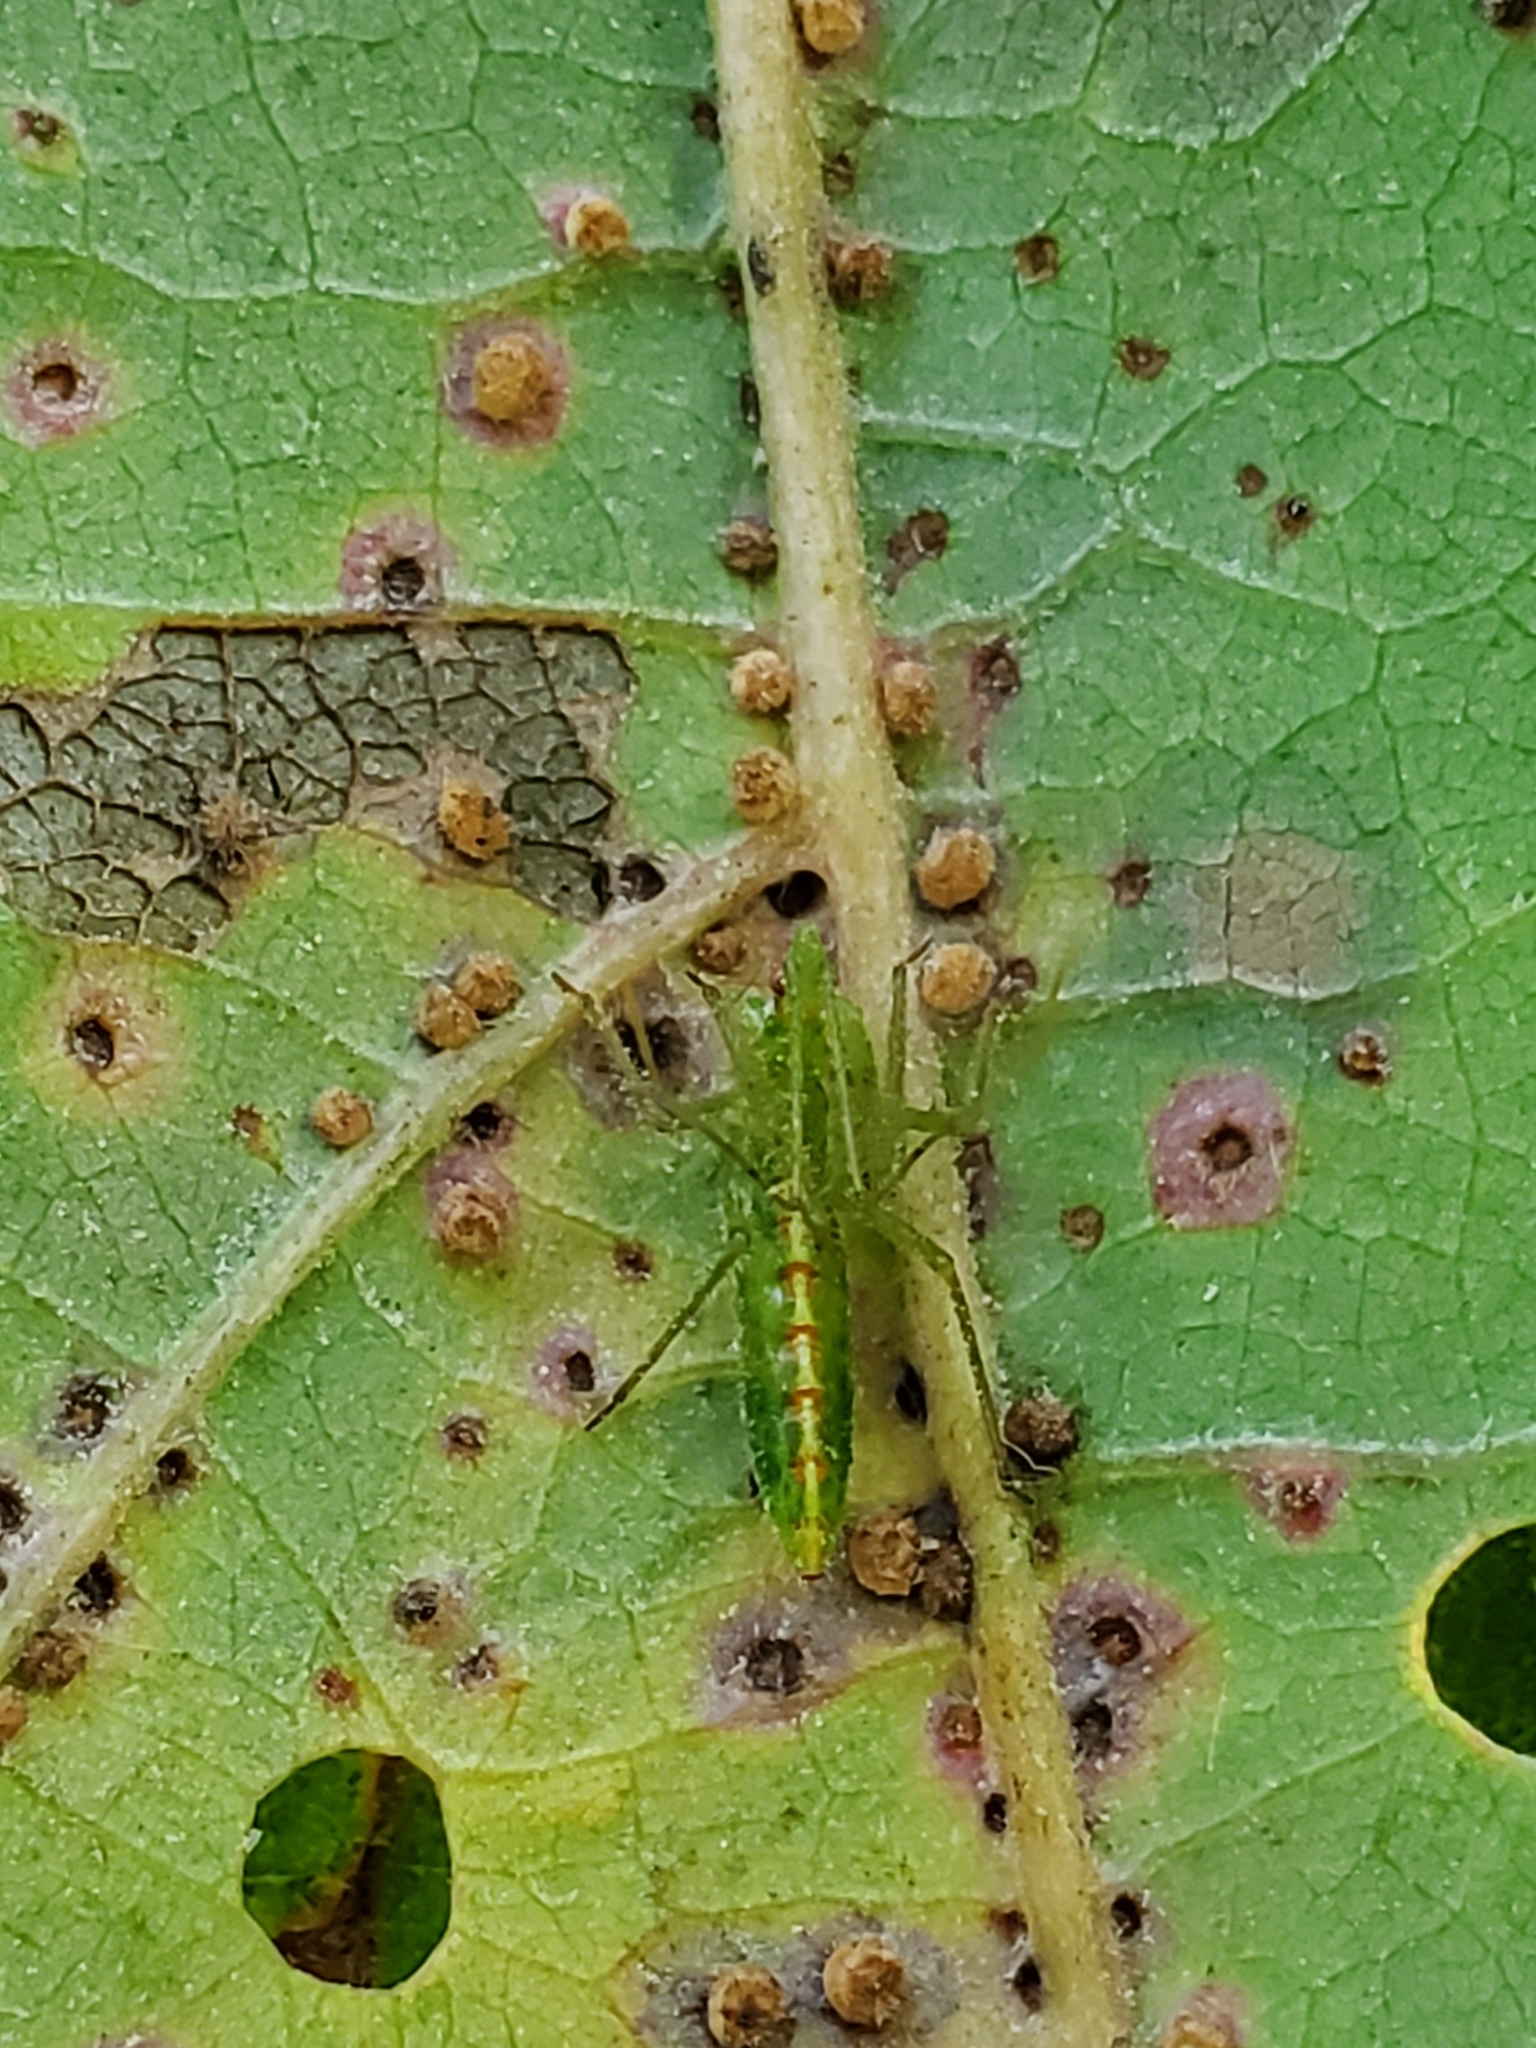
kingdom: Animalia
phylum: Arthropoda
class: Insecta
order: Hemiptera
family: Reduviidae
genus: Zelus
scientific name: Zelus luridus
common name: Pale green assassin bug
